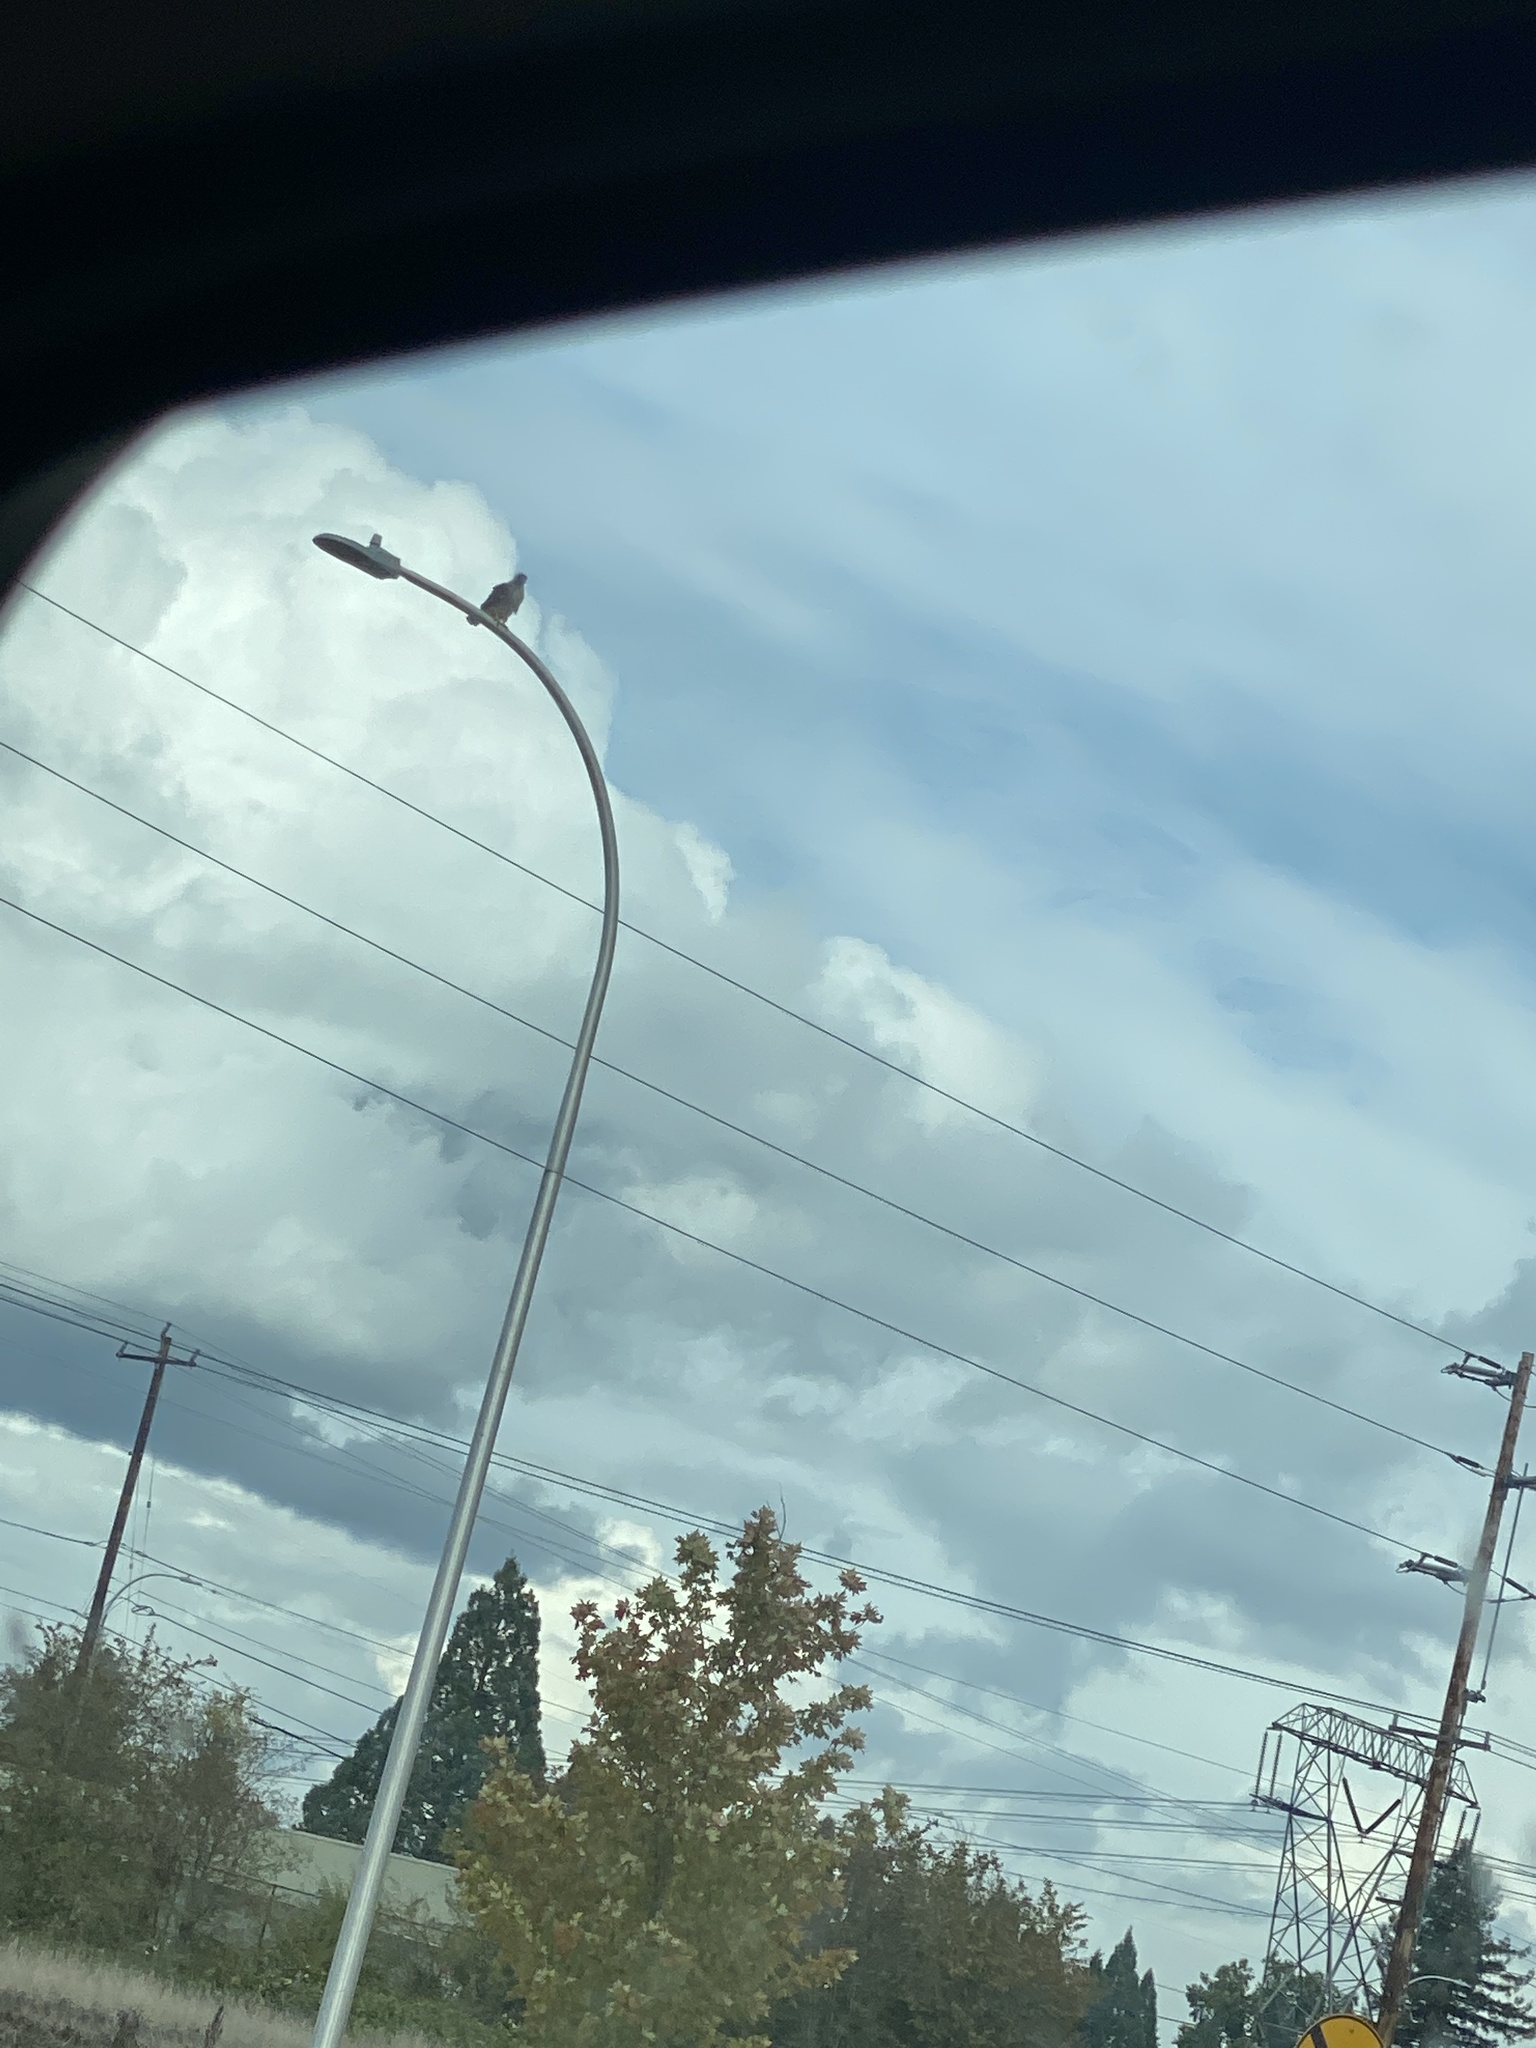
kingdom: Animalia
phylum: Chordata
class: Aves
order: Accipitriformes
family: Accipitridae
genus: Buteo
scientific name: Buteo jamaicensis
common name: Red-tailed hawk
